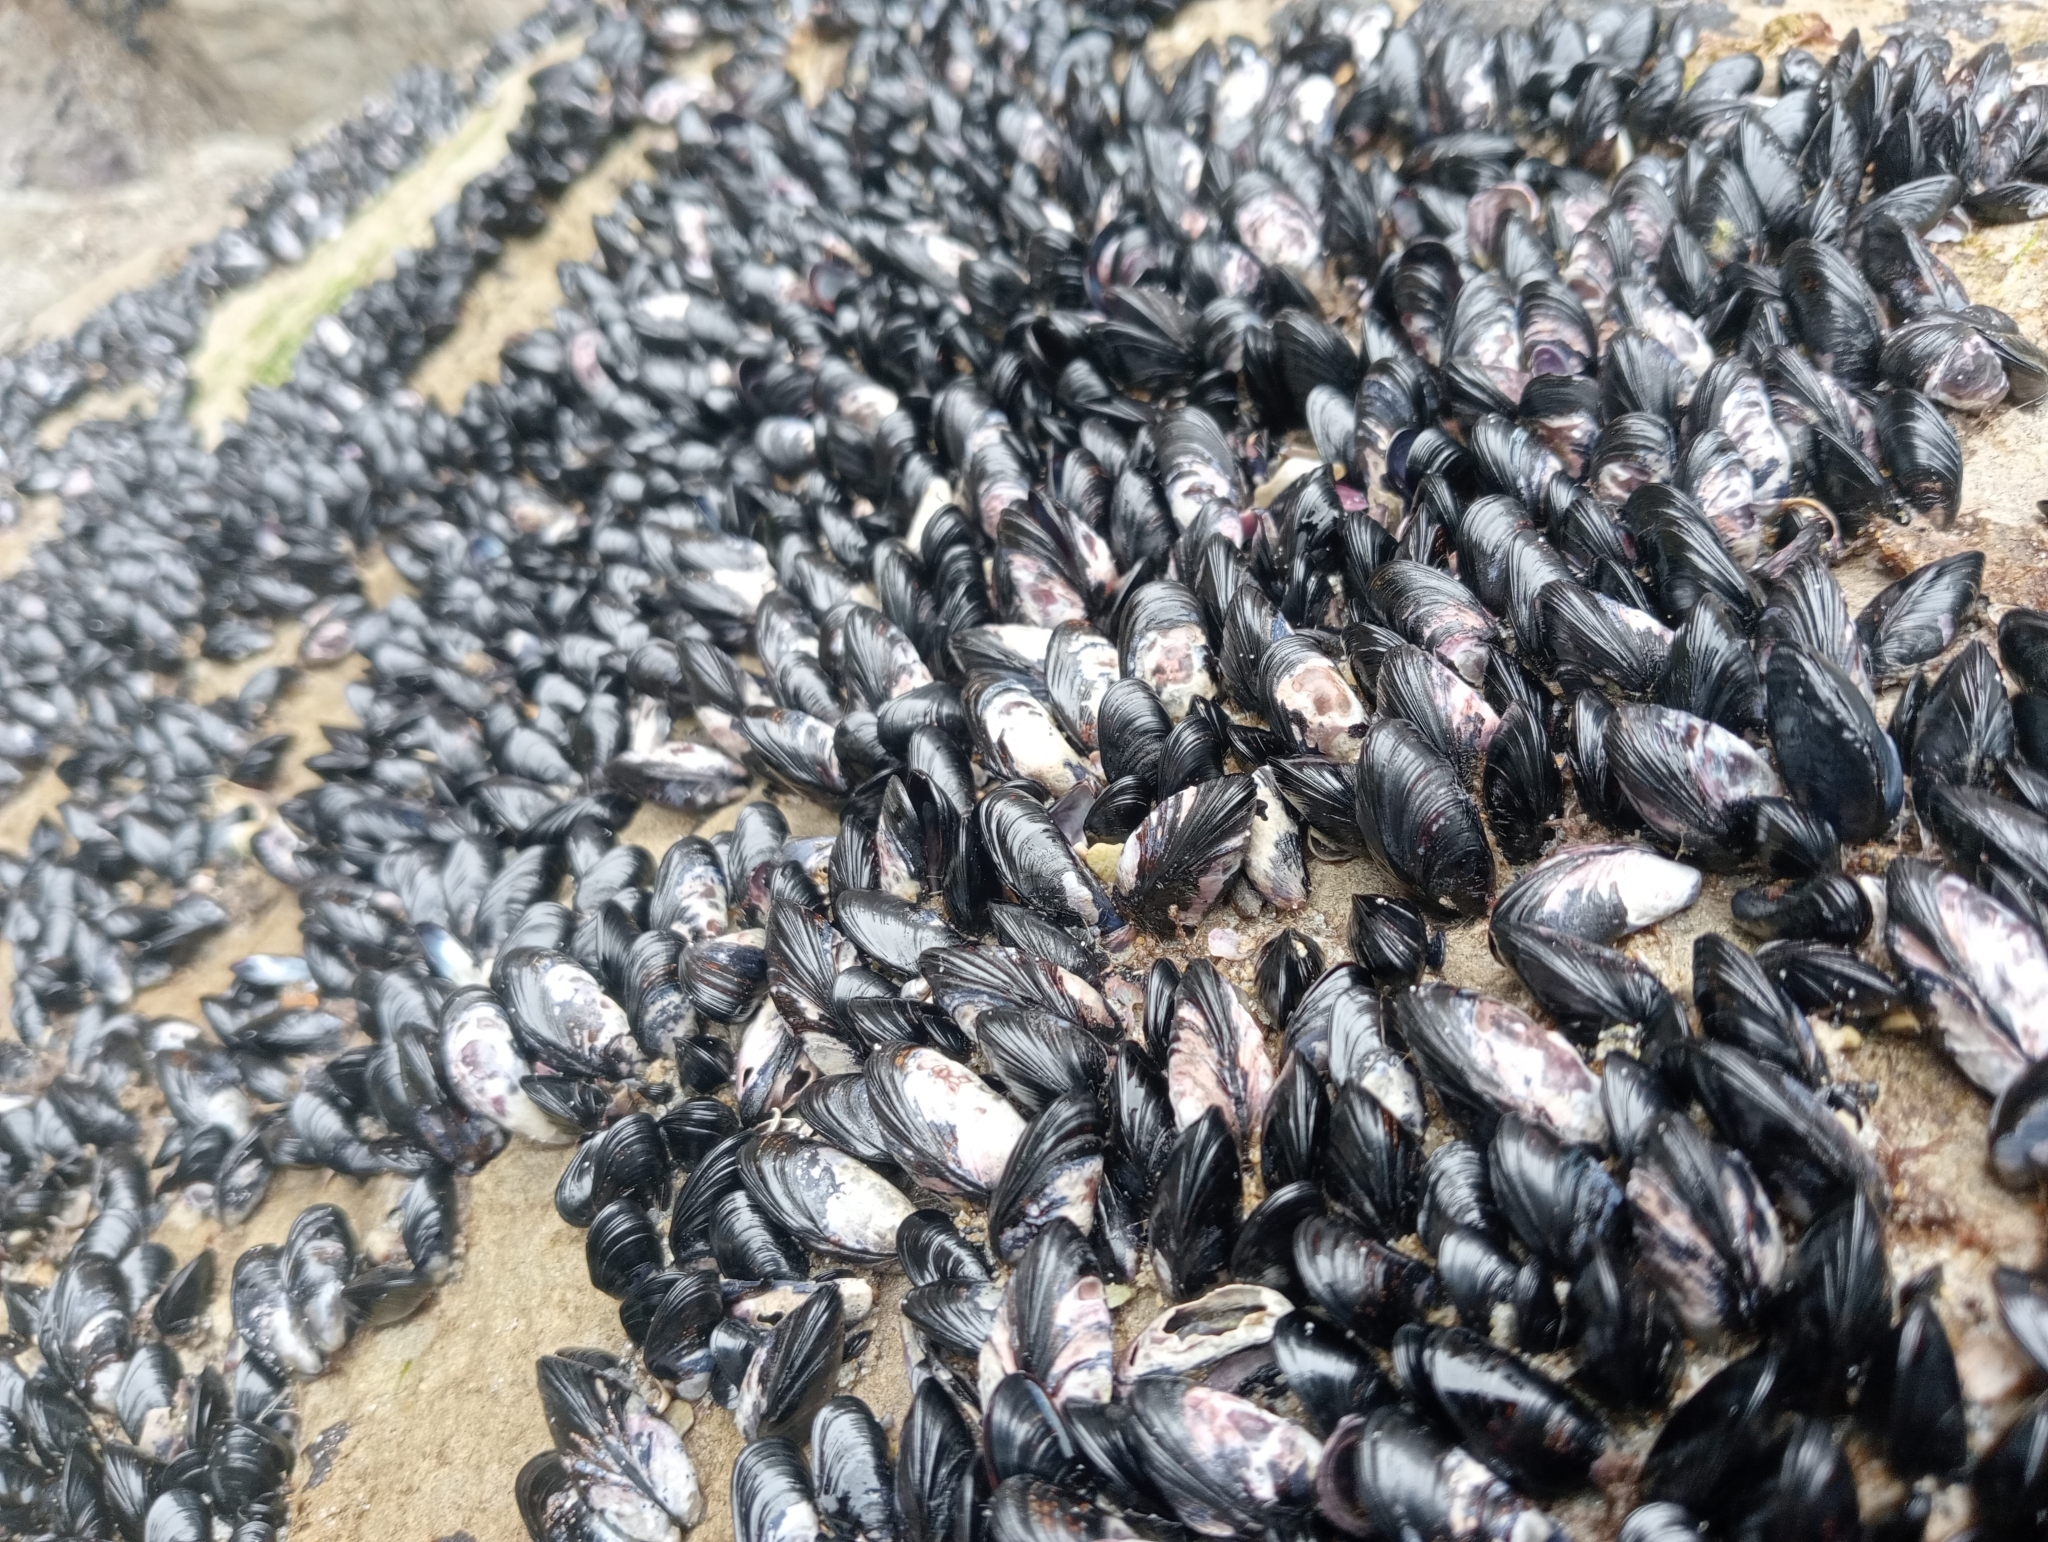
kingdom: Animalia
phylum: Mollusca
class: Bivalvia
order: Mytilida
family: Mytilidae
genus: Xenostrobus
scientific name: Xenostrobus neozelanicus
